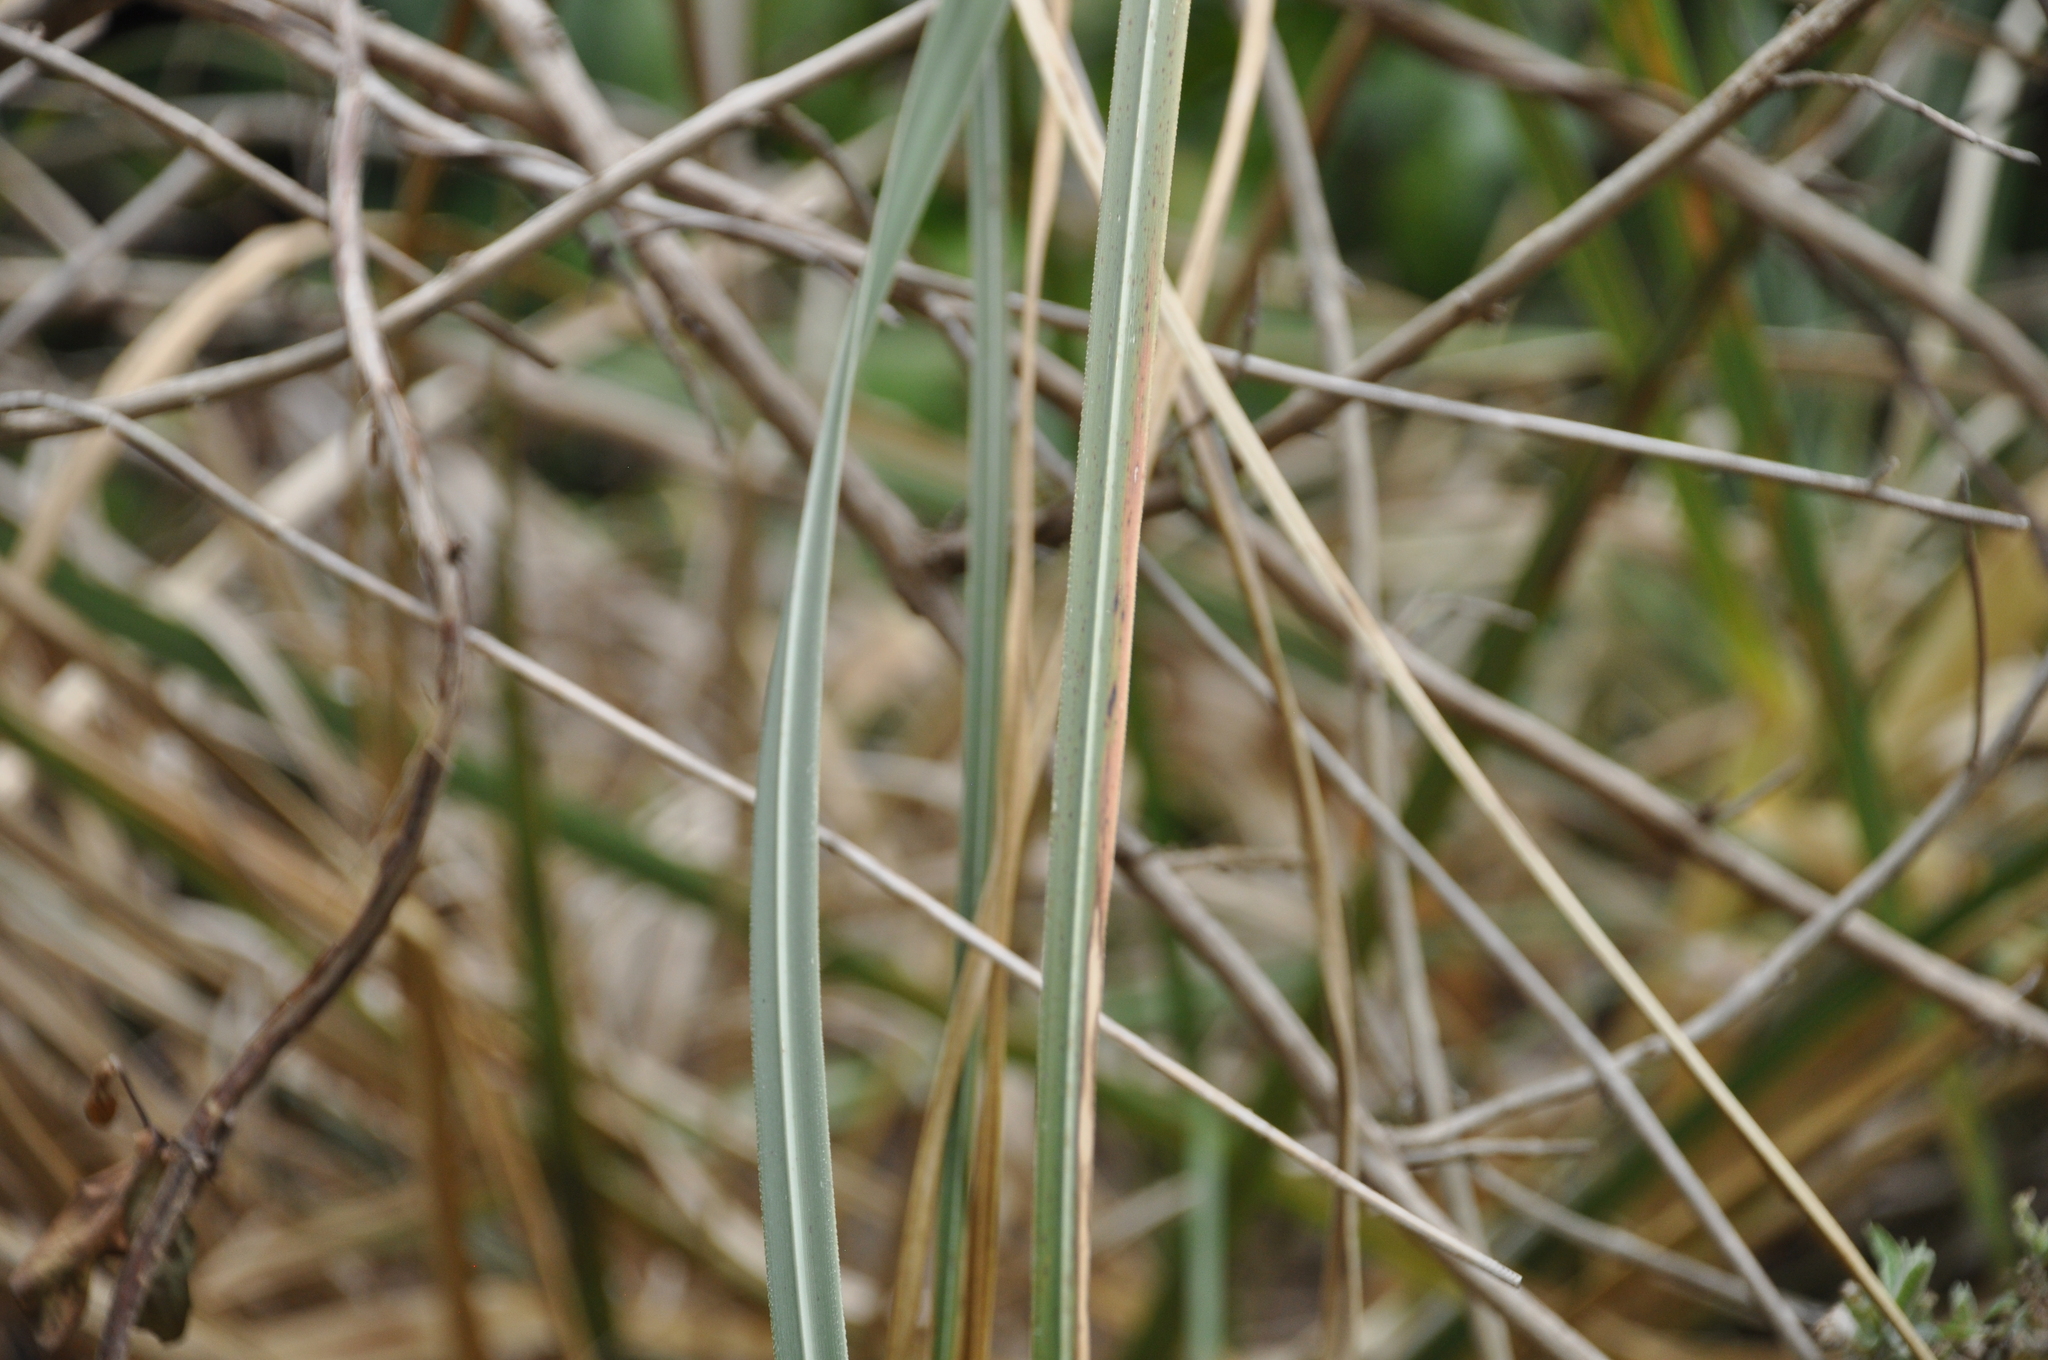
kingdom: Plantae
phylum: Tracheophyta
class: Liliopsida
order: Poales
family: Poaceae
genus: Cortaderia
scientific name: Cortaderia selloana
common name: Uruguayan pampas grass
